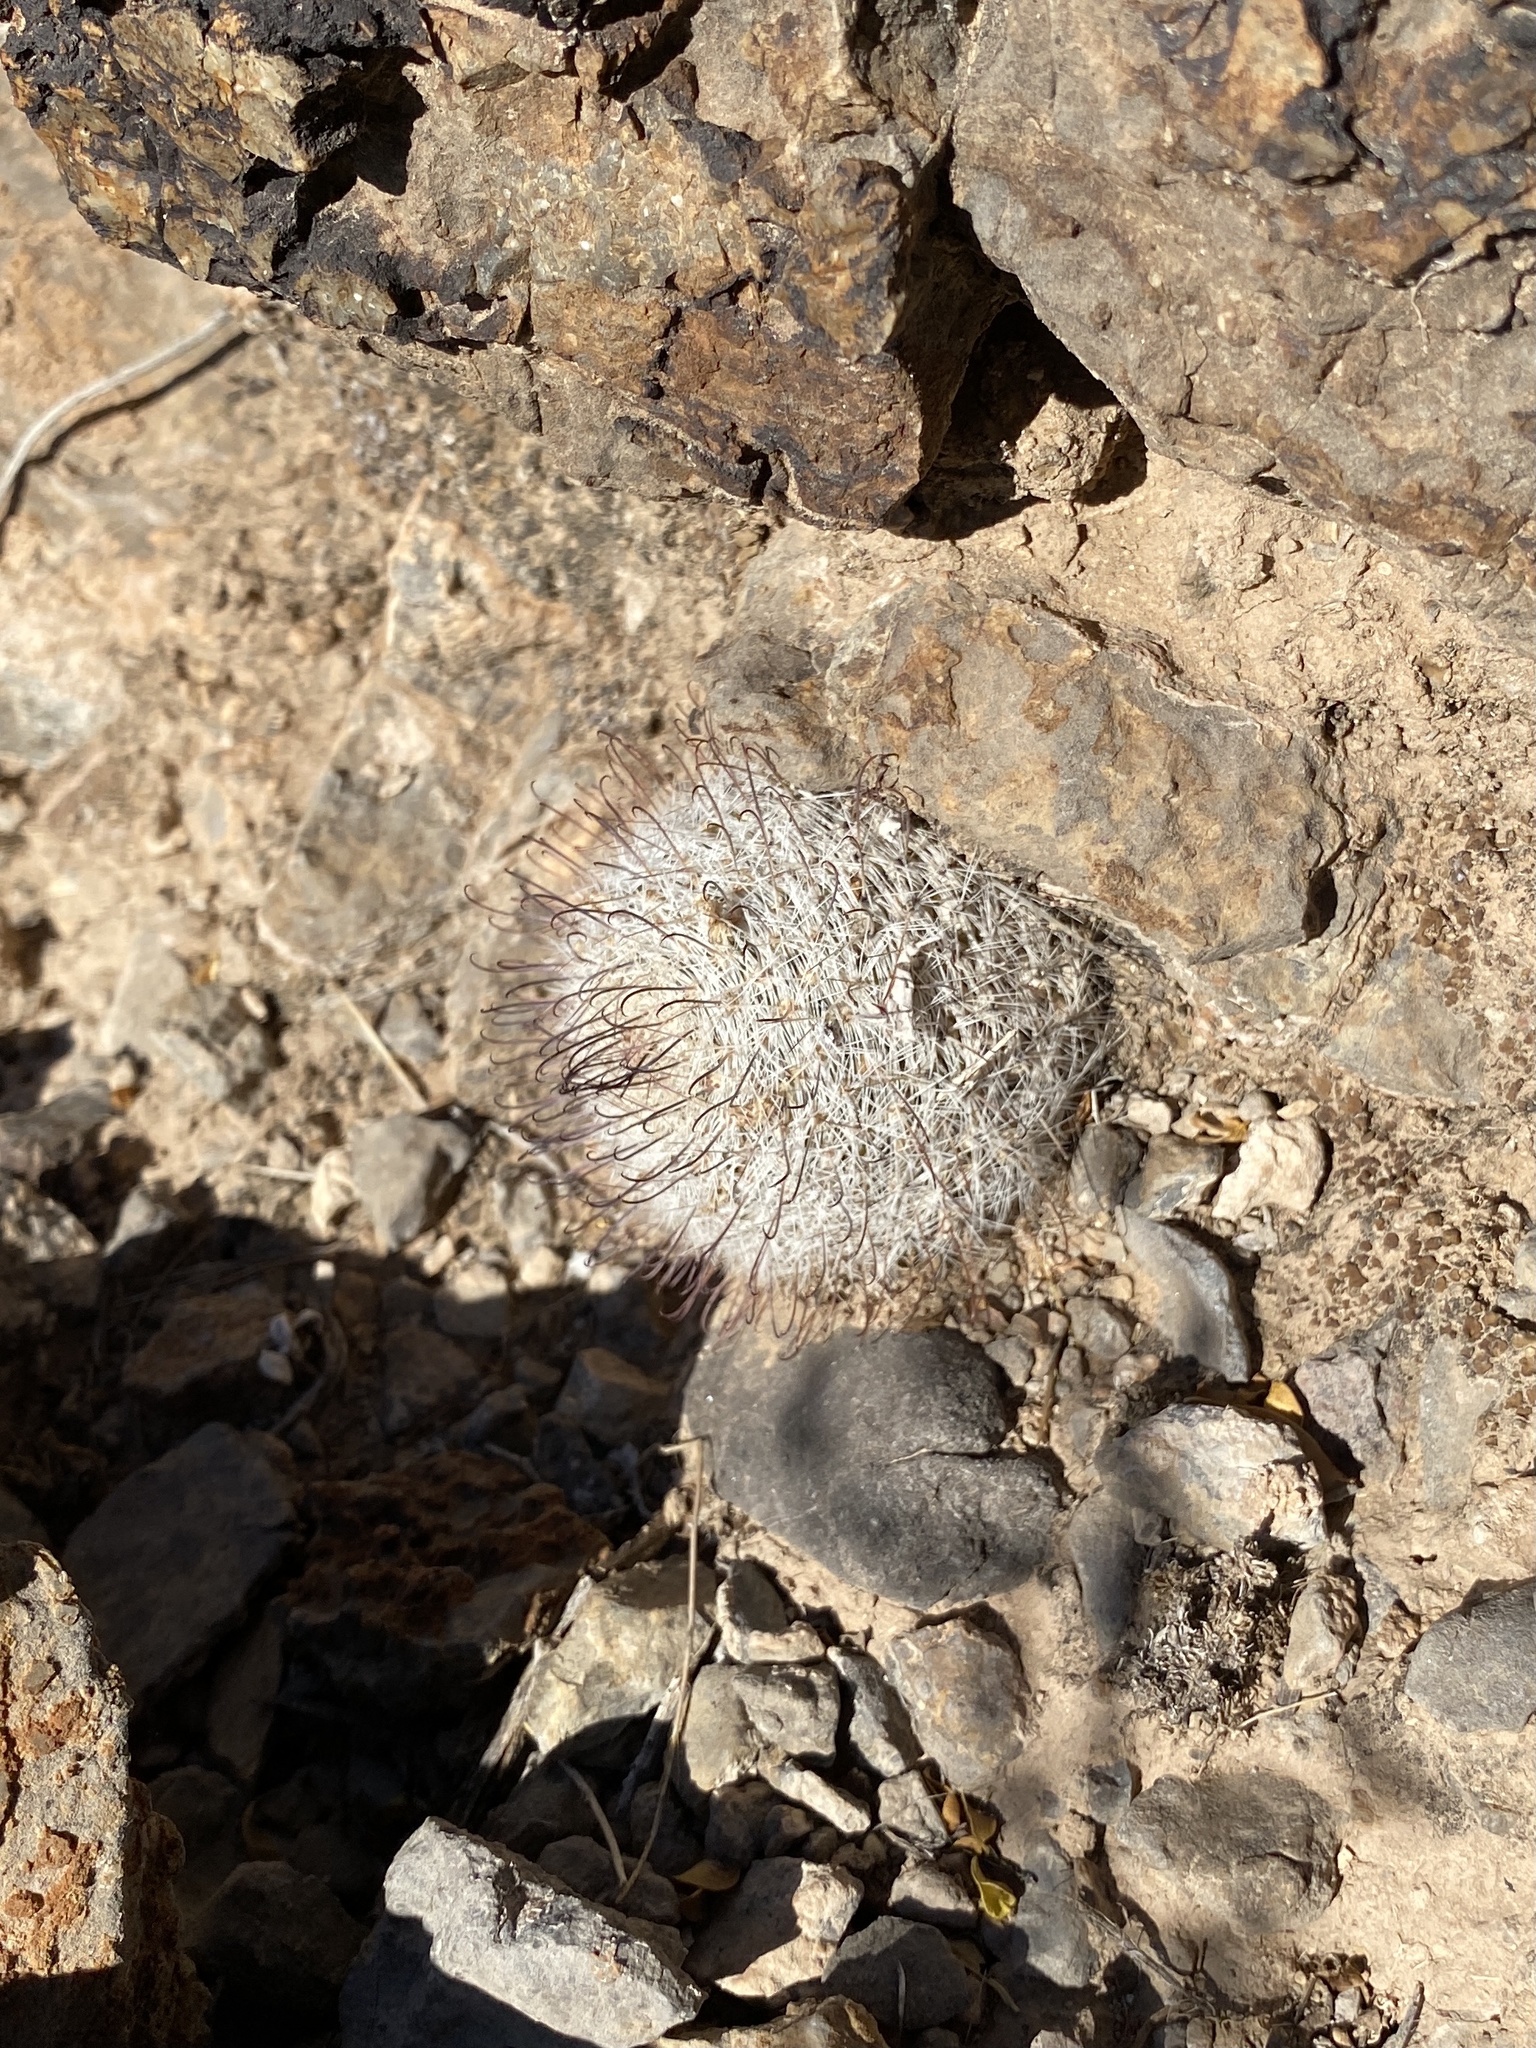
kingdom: Plantae
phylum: Tracheophyta
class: Magnoliopsida
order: Caryophyllales
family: Cactaceae
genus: Cochemiea
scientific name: Cochemiea grahamii
